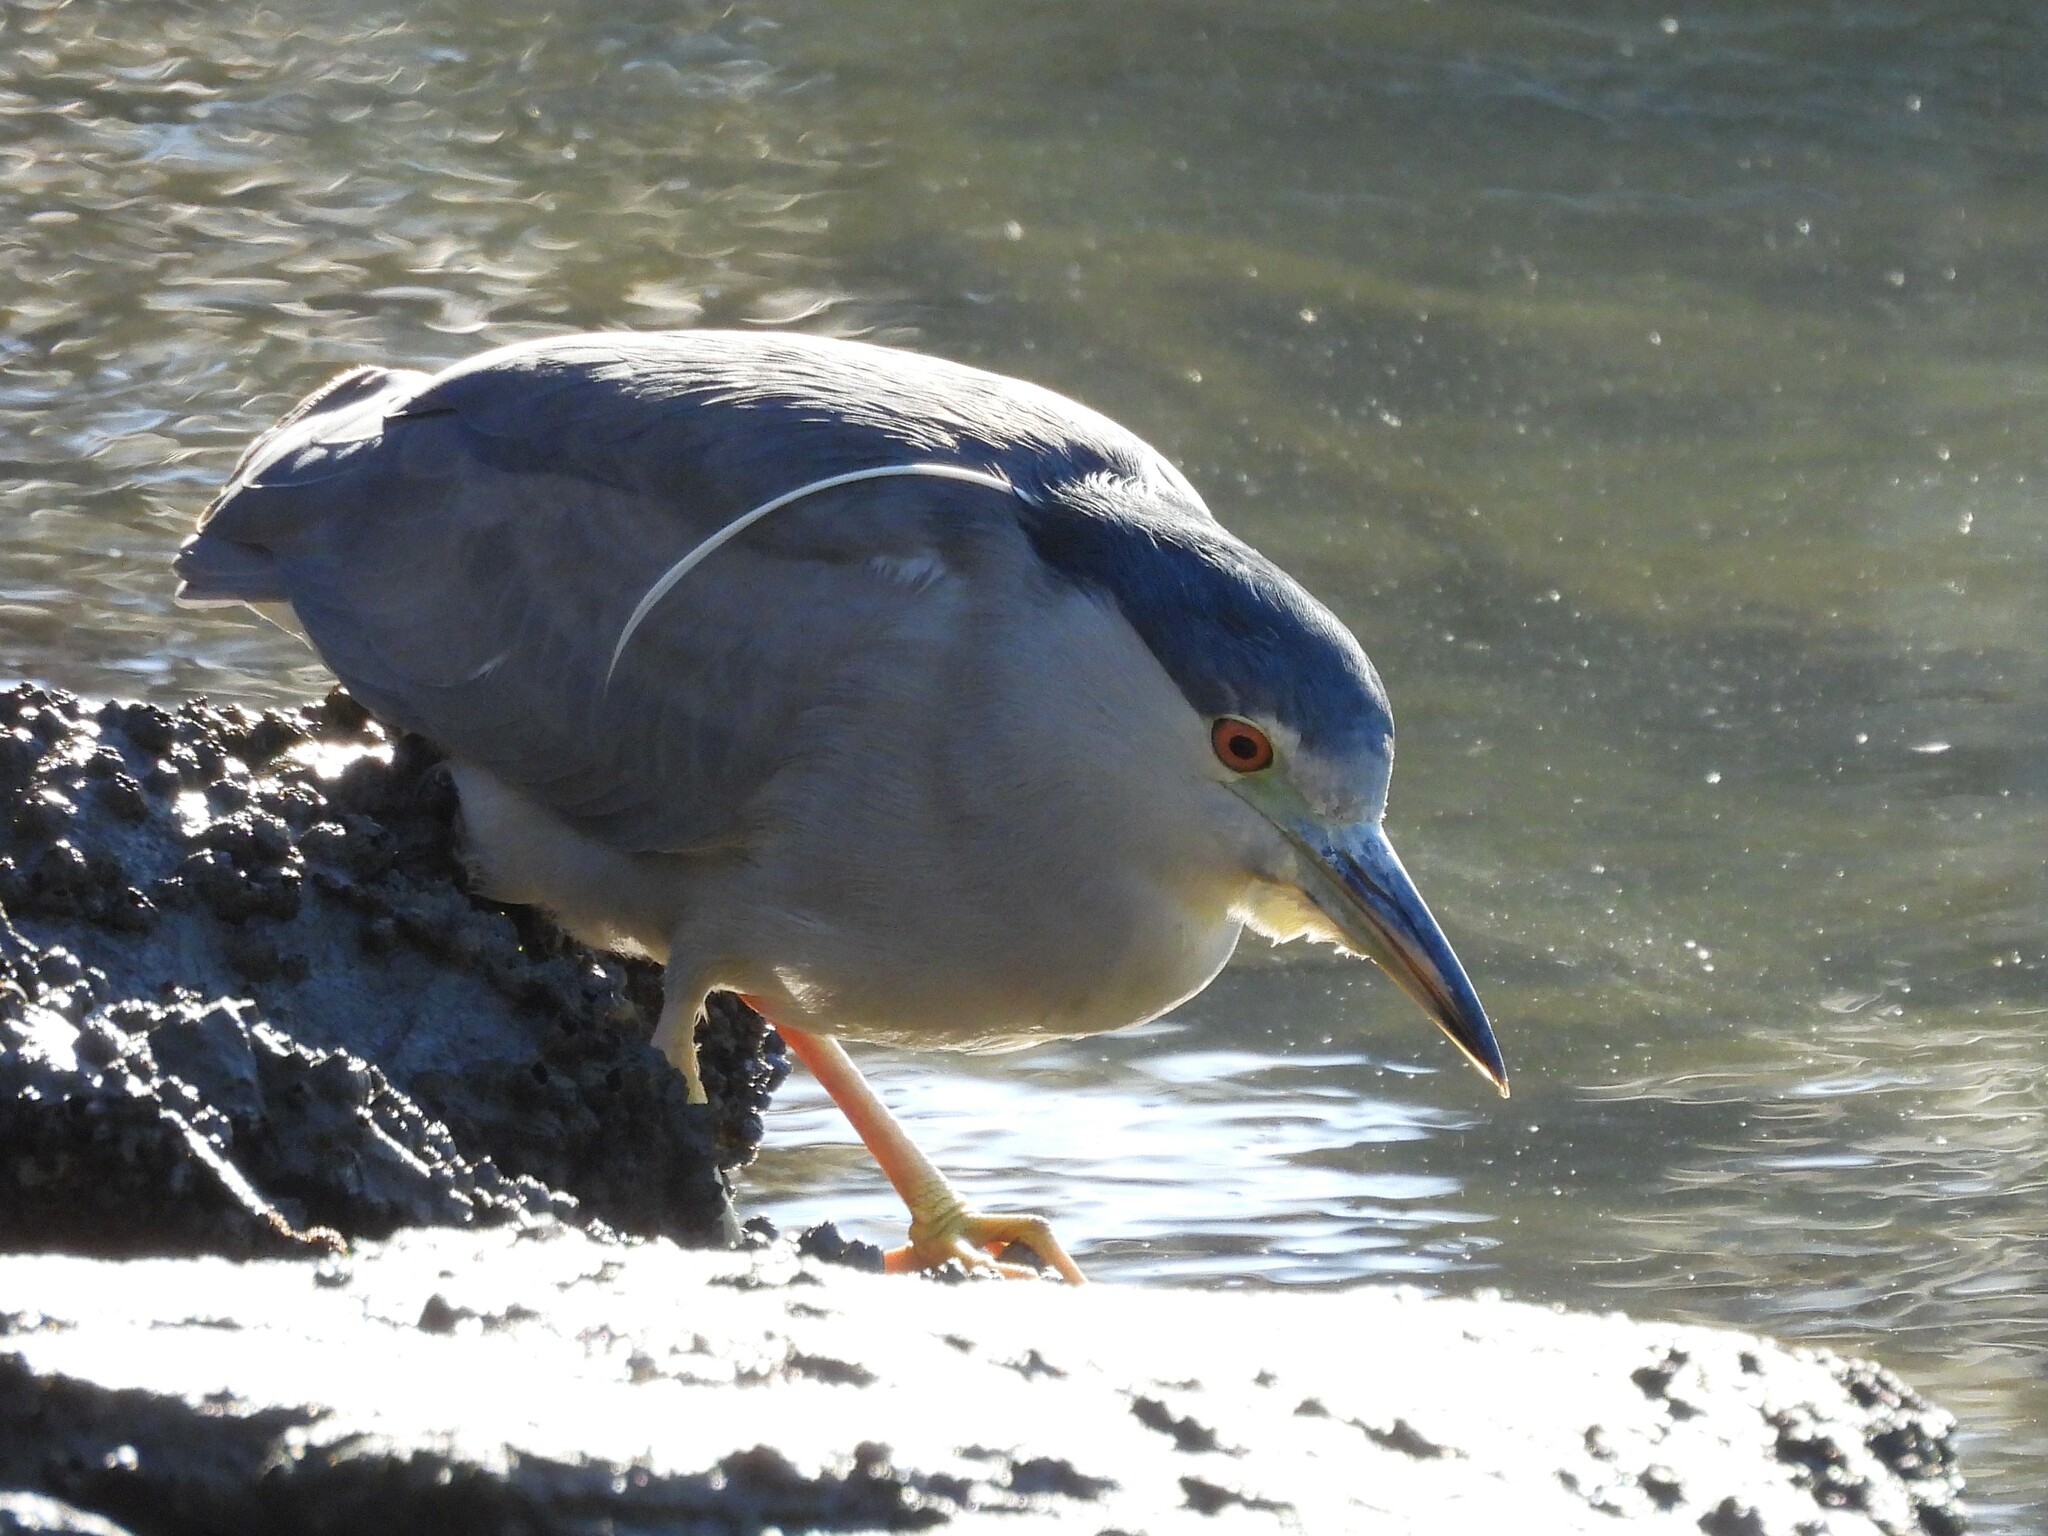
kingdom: Animalia
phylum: Chordata
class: Aves
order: Pelecaniformes
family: Ardeidae
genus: Nycticorax
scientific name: Nycticorax nycticorax
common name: Black-crowned night heron
